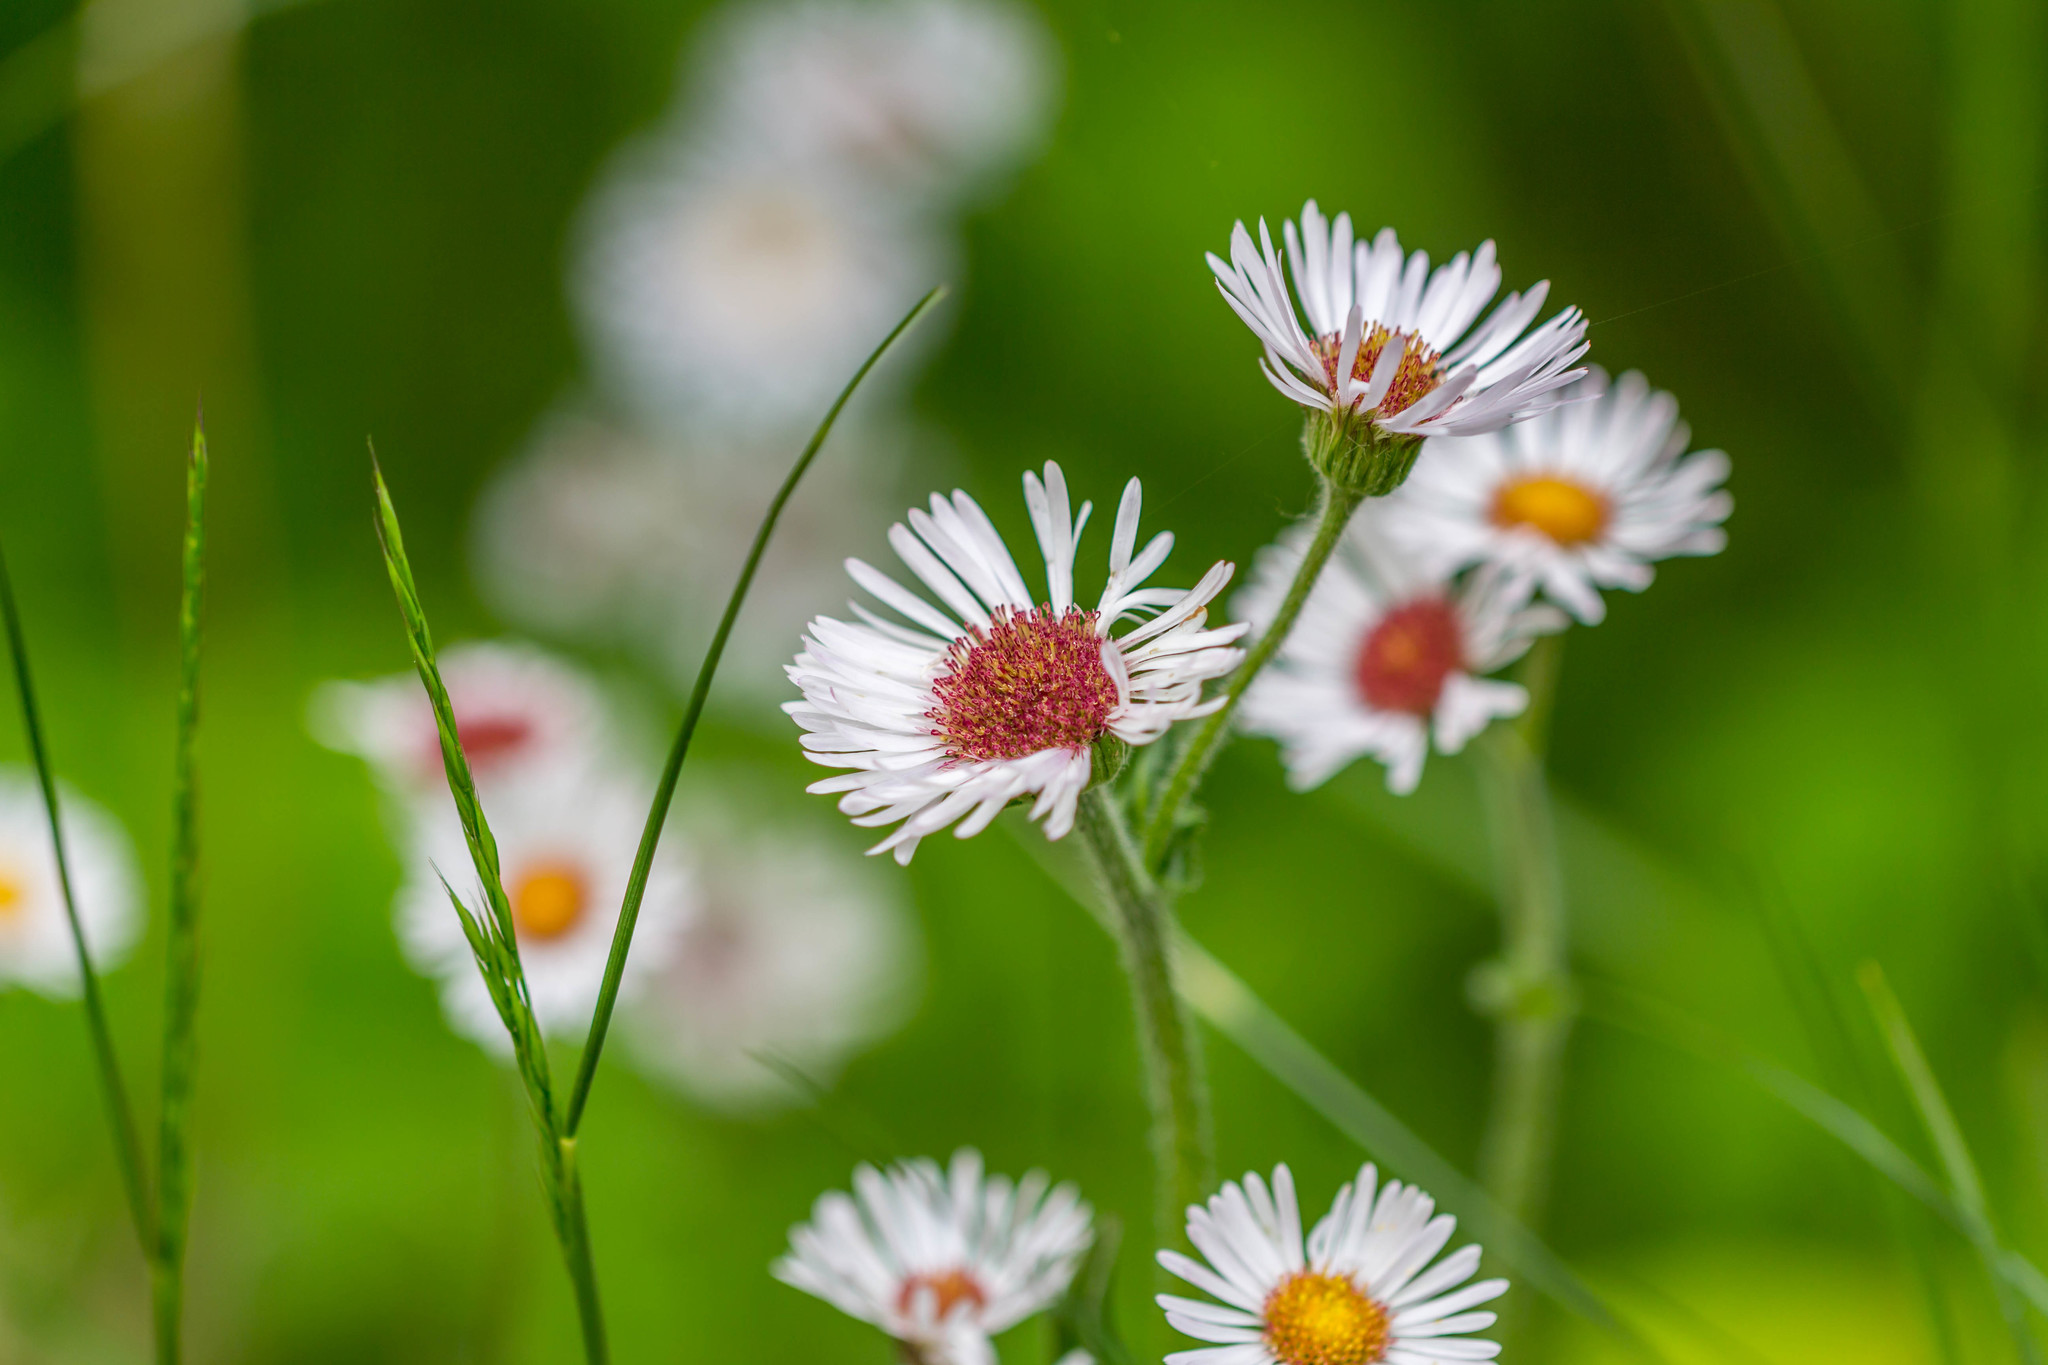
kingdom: Plantae
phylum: Tracheophyta
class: Magnoliopsida
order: Asterales
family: Asteraceae
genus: Erigeron
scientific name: Erigeron pulchellus
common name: Hairy fleabane
